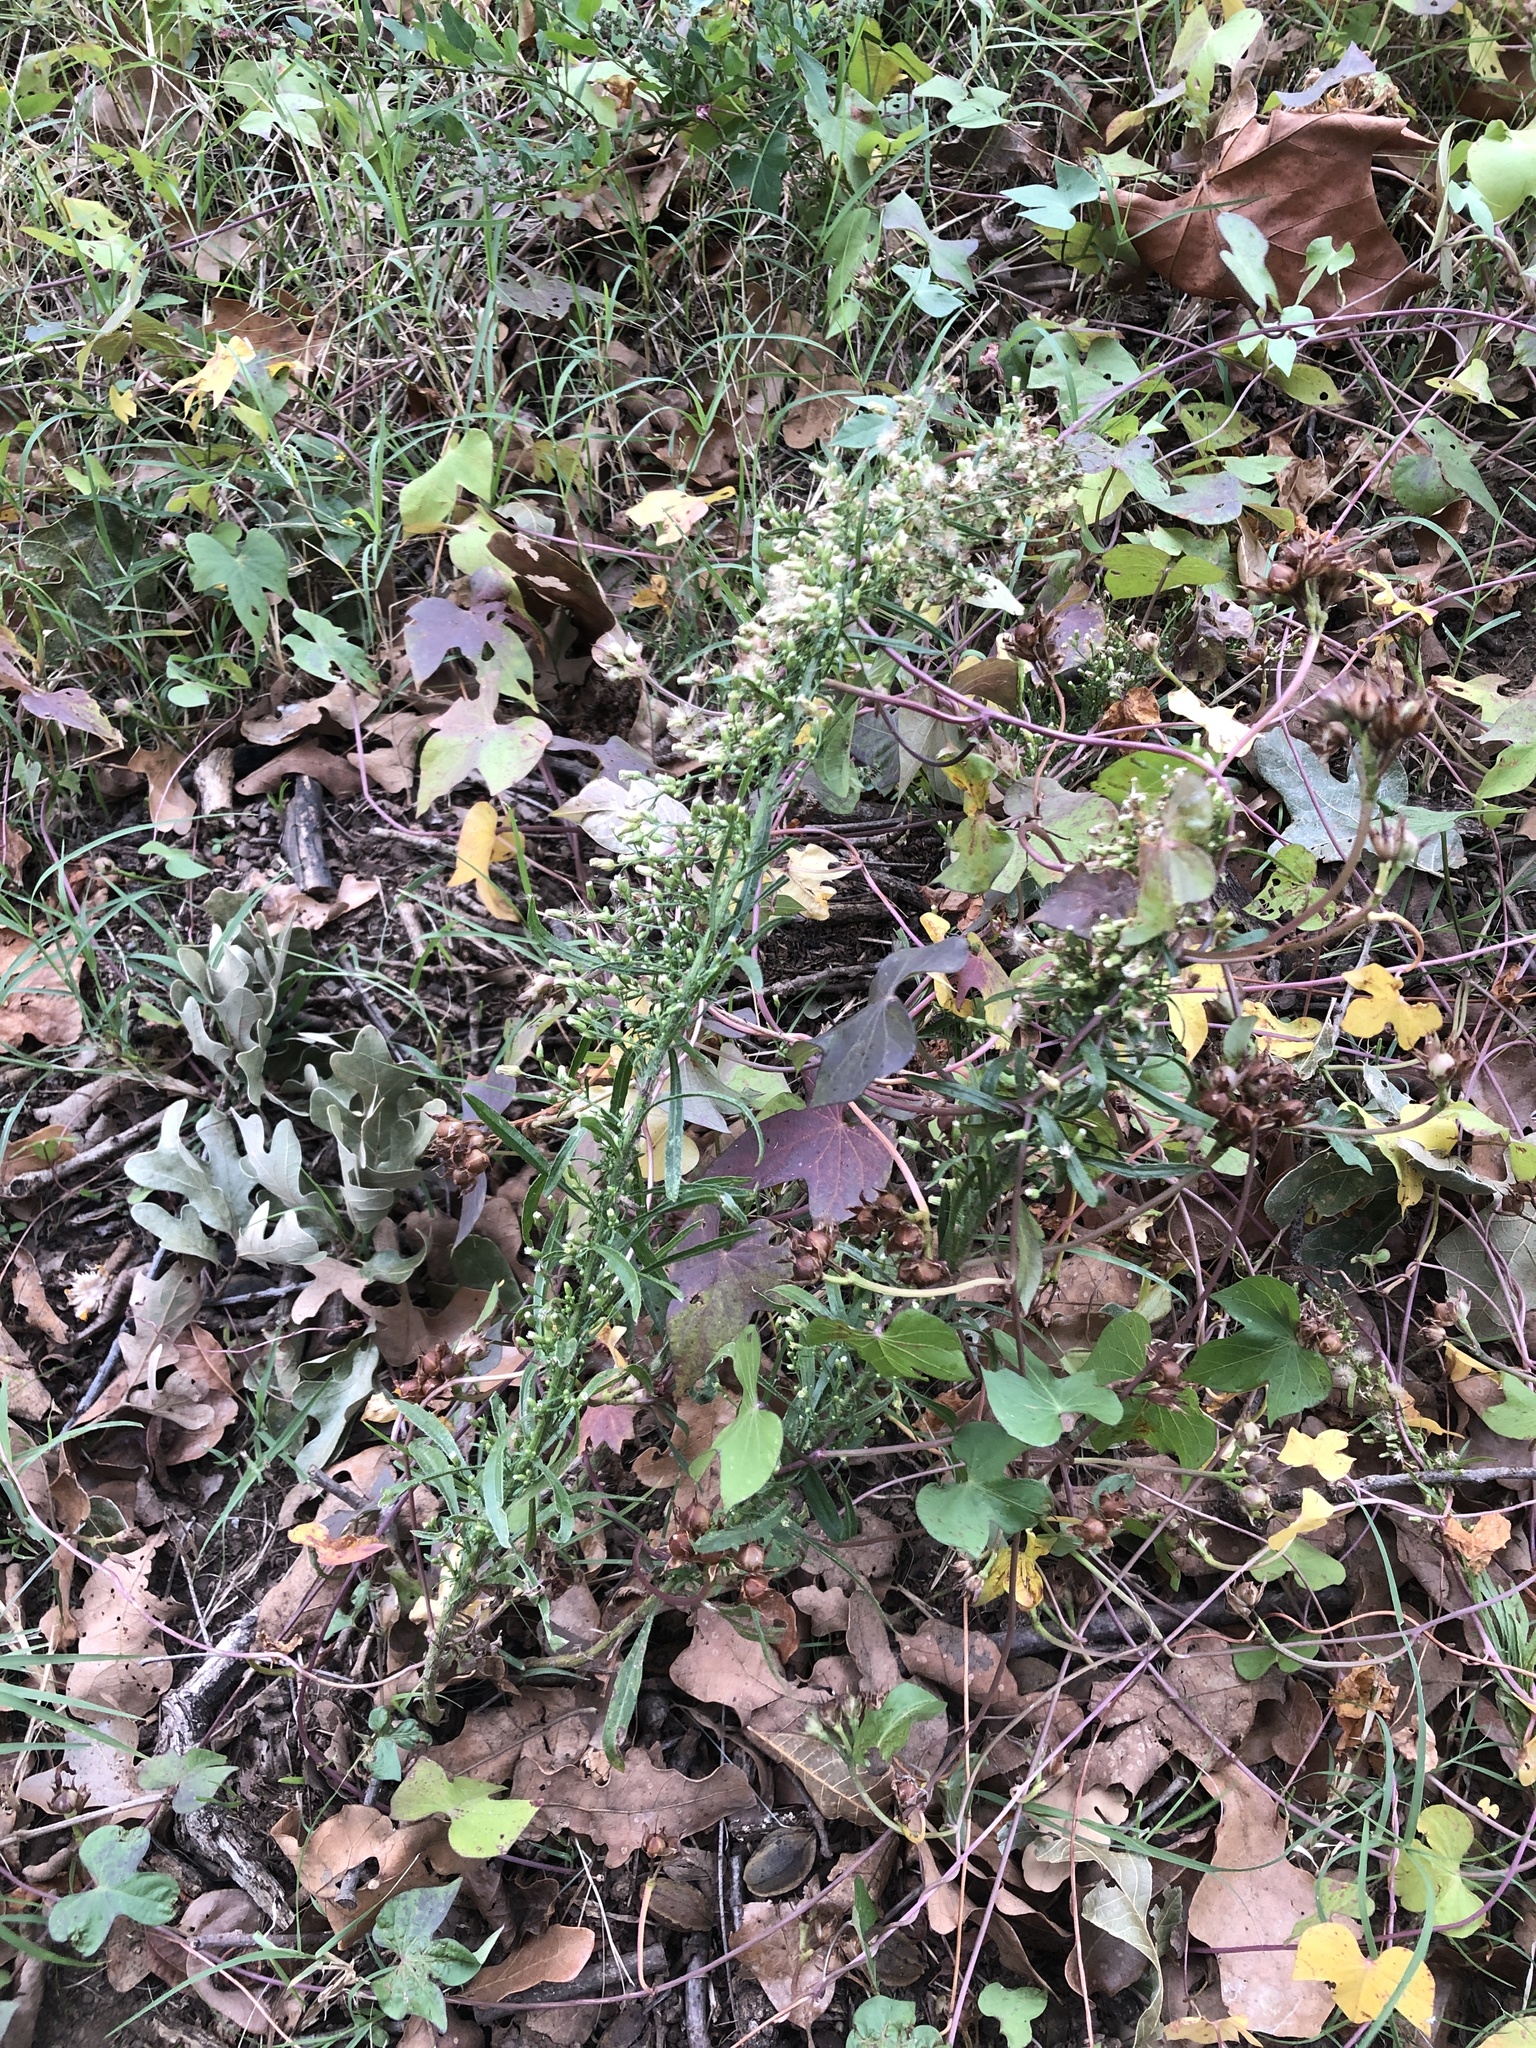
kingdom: Plantae
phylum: Tracheophyta
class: Magnoliopsida
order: Asterales
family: Asteraceae
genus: Erigeron
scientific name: Erigeron canadensis
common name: Canadian fleabane
